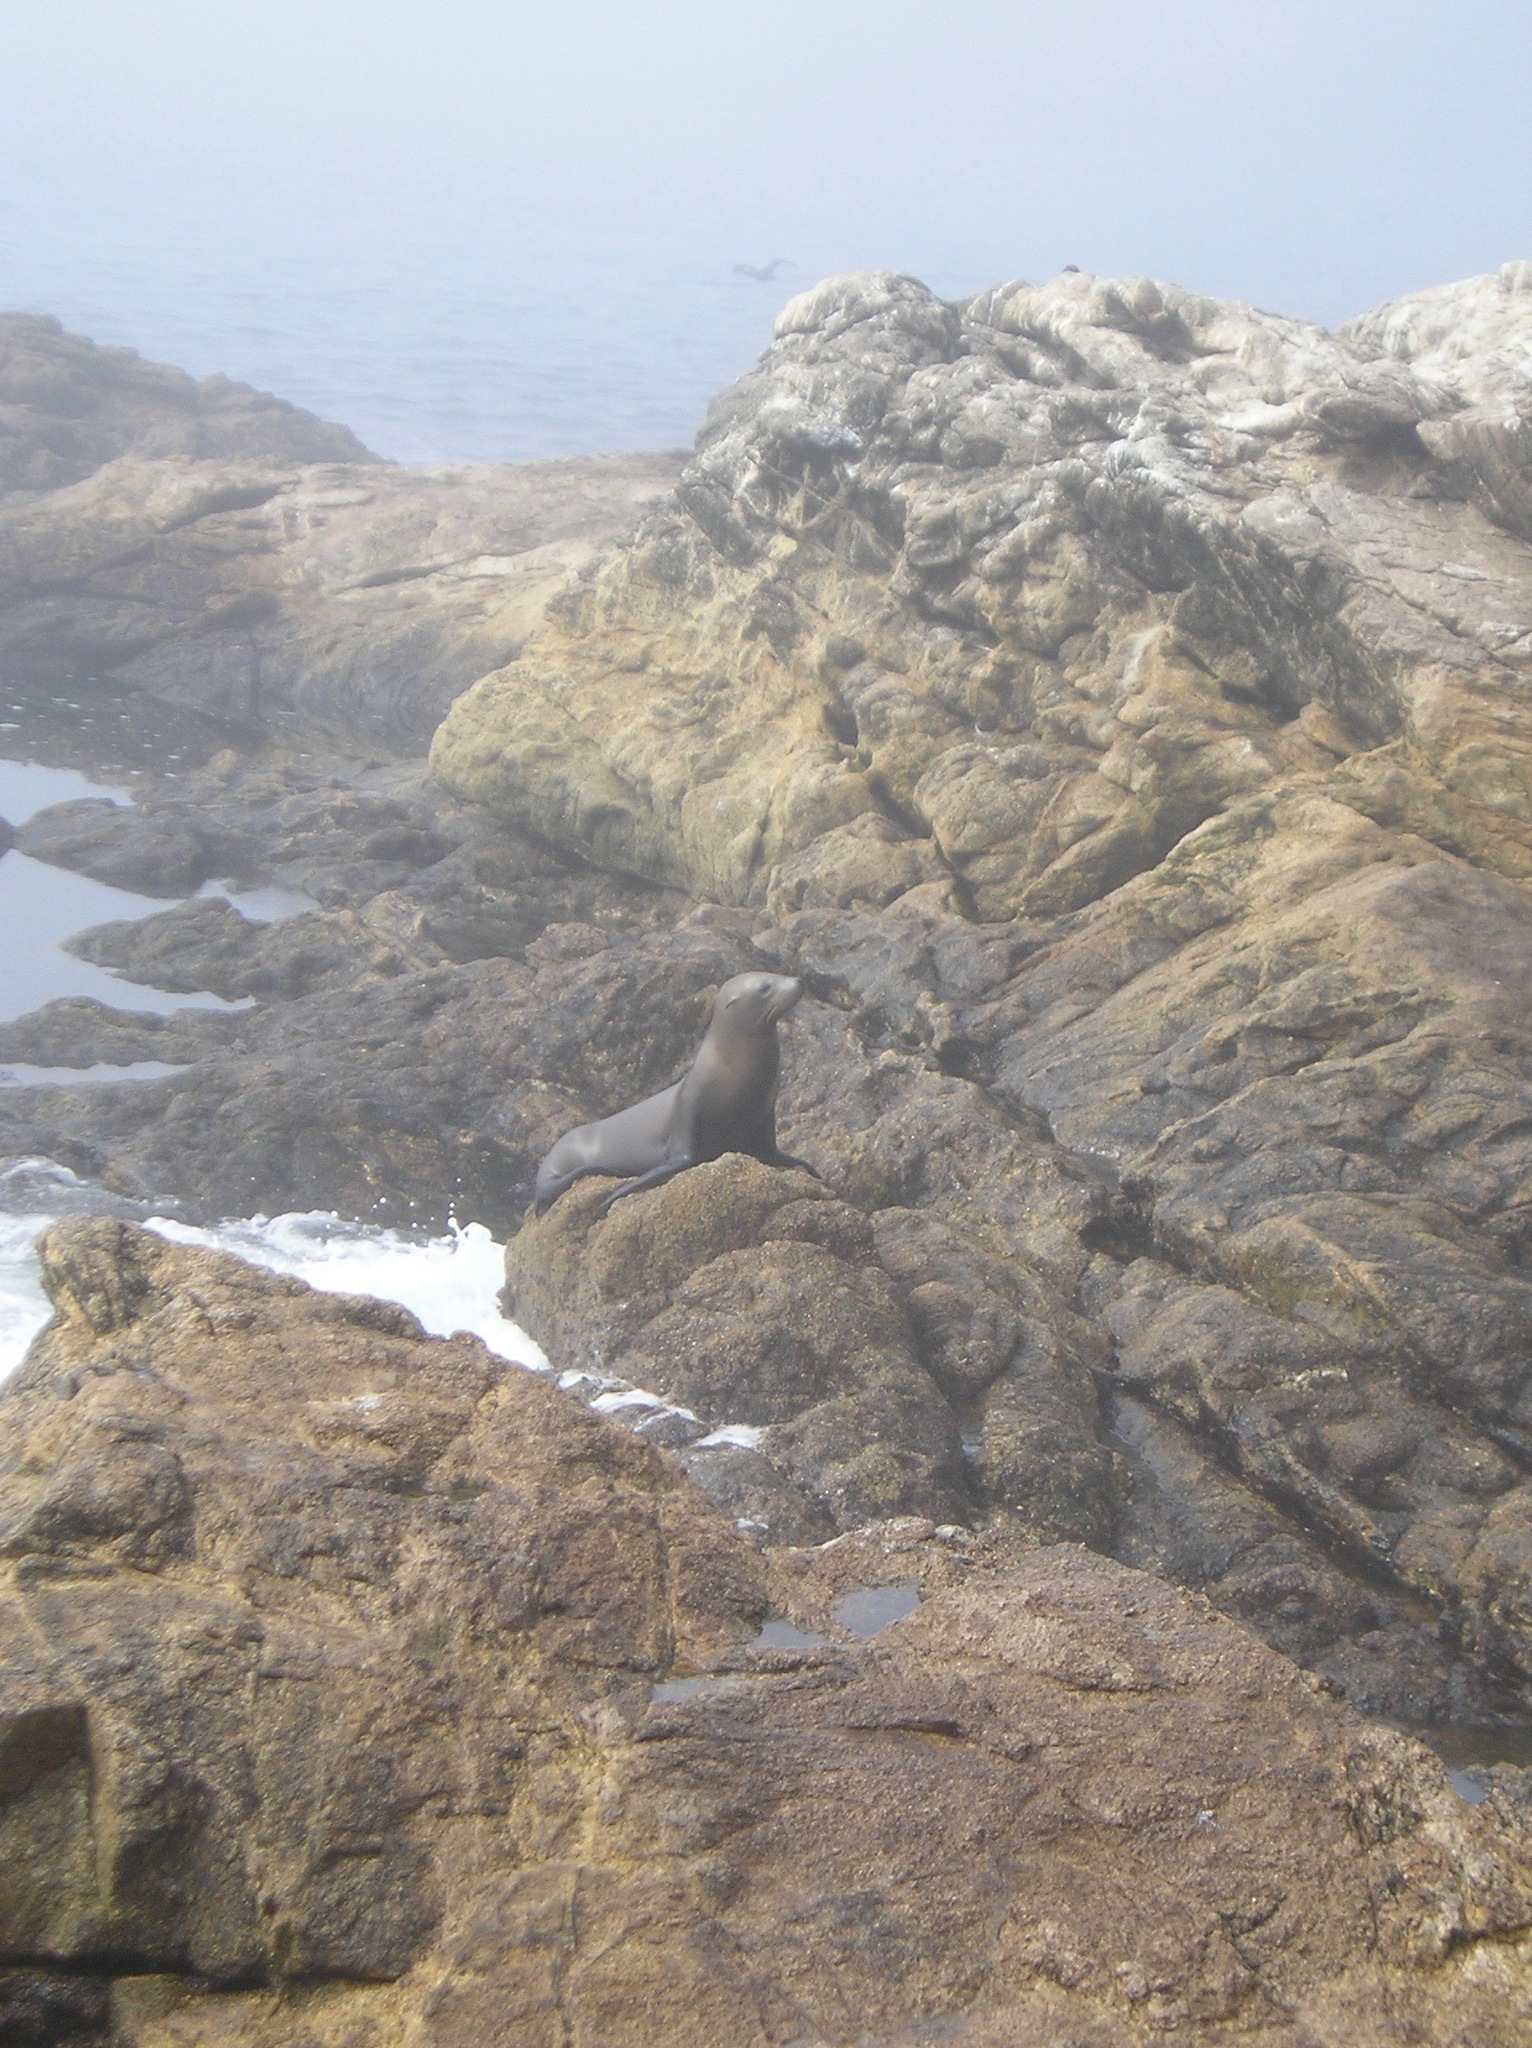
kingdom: Animalia
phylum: Chordata
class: Mammalia
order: Carnivora
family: Otariidae
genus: Zalophus
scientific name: Zalophus californianus
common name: California sea lion
